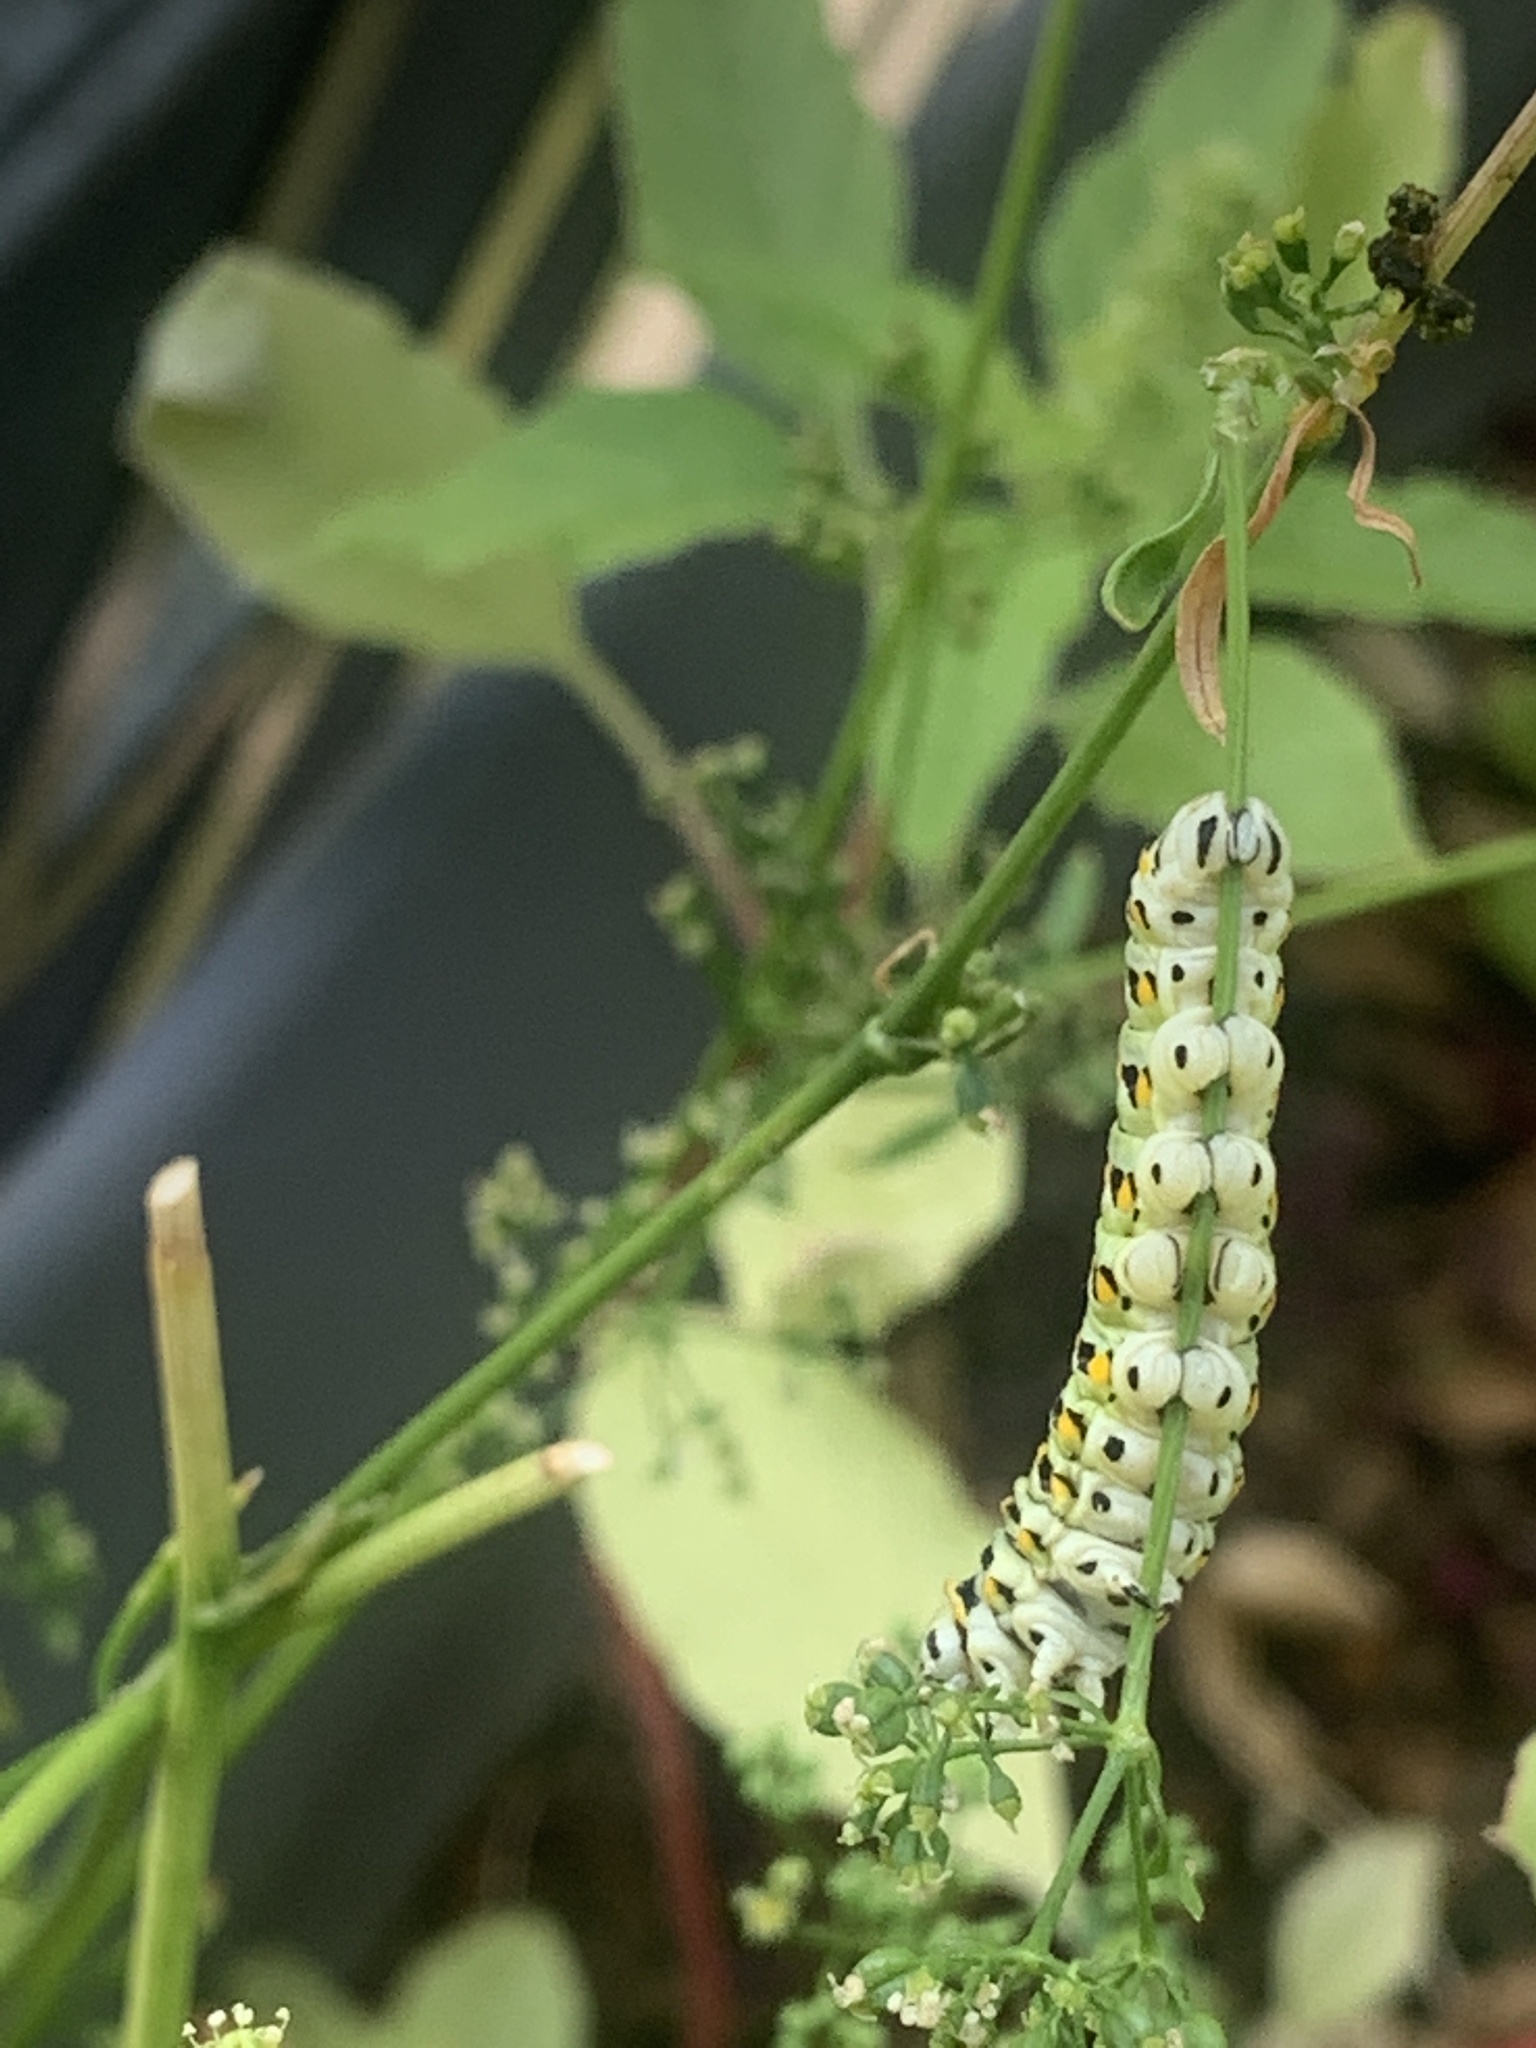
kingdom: Animalia
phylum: Arthropoda
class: Insecta
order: Lepidoptera
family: Papilionidae
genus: Papilio
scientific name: Papilio polyxenes
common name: Black swallowtail
